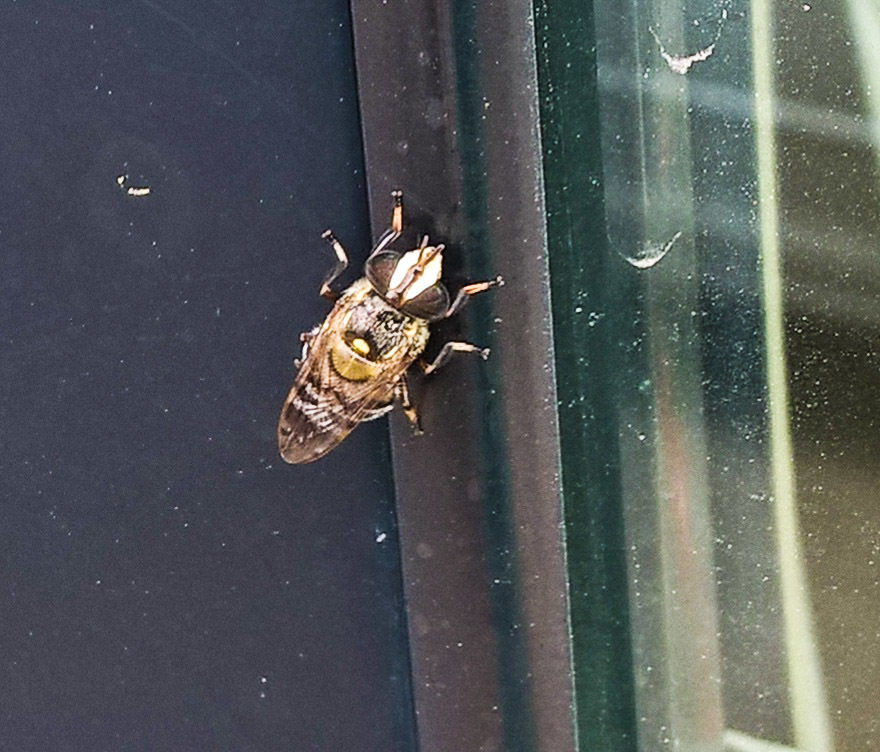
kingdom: Animalia
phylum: Arthropoda
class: Insecta
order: Diptera
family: Syrphidae
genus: Copestylum
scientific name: Copestylum tamaulipanum
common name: Syrphid fly
